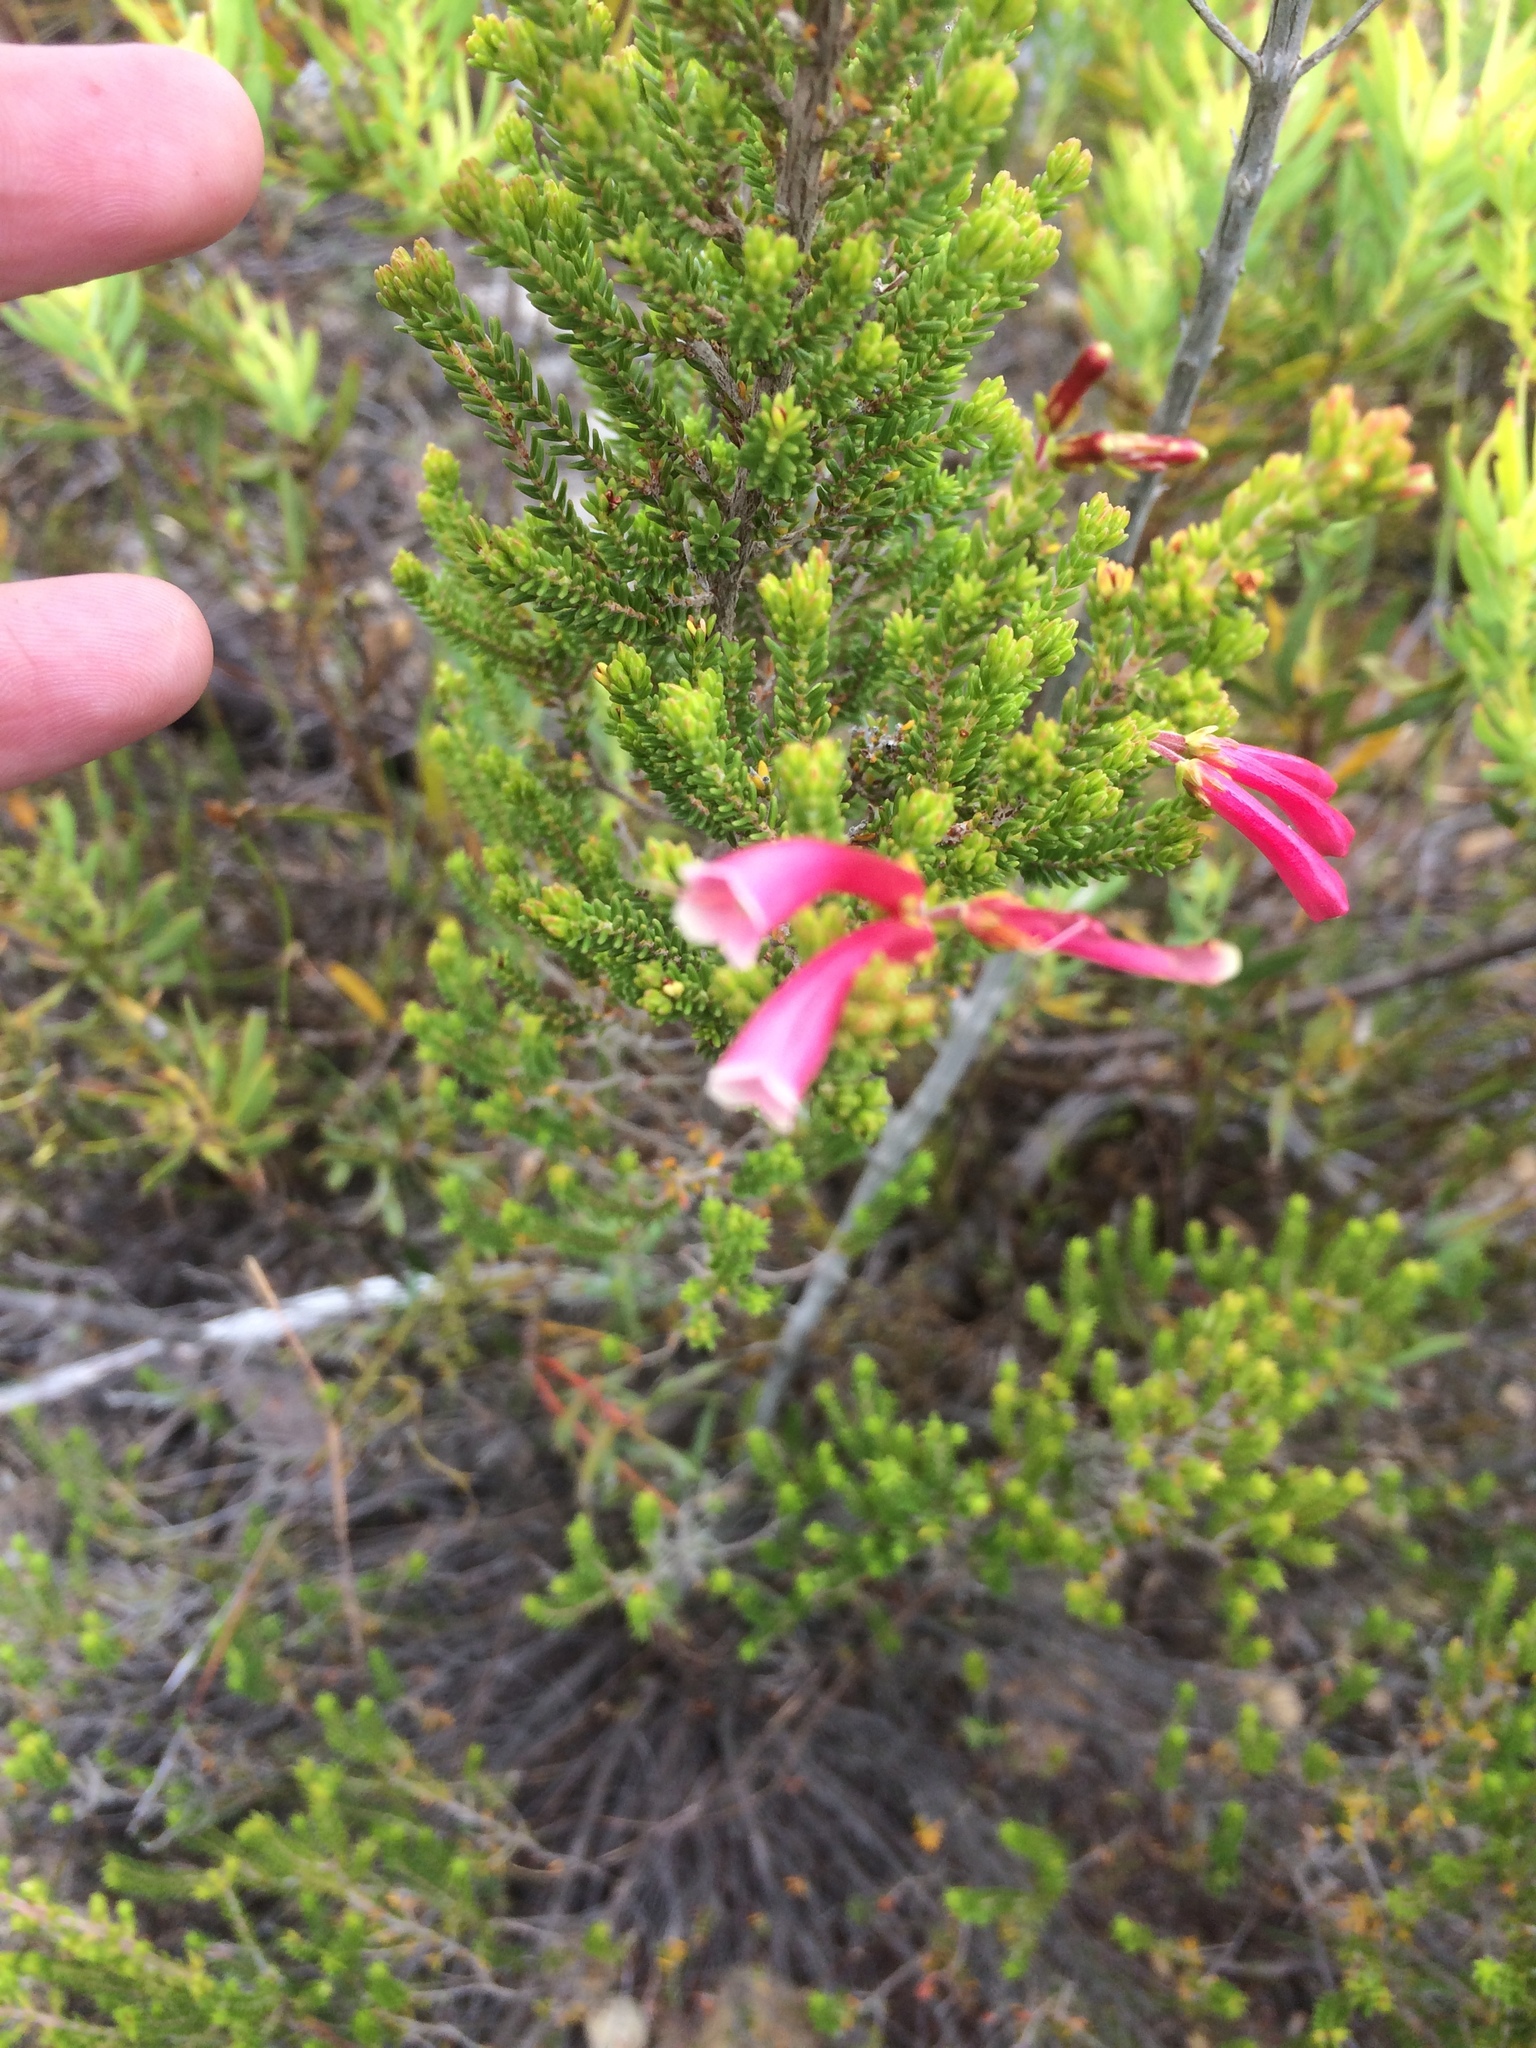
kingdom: Plantae
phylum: Tracheophyta
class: Magnoliopsida
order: Ericales
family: Ericaceae
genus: Erica
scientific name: Erica discolor
